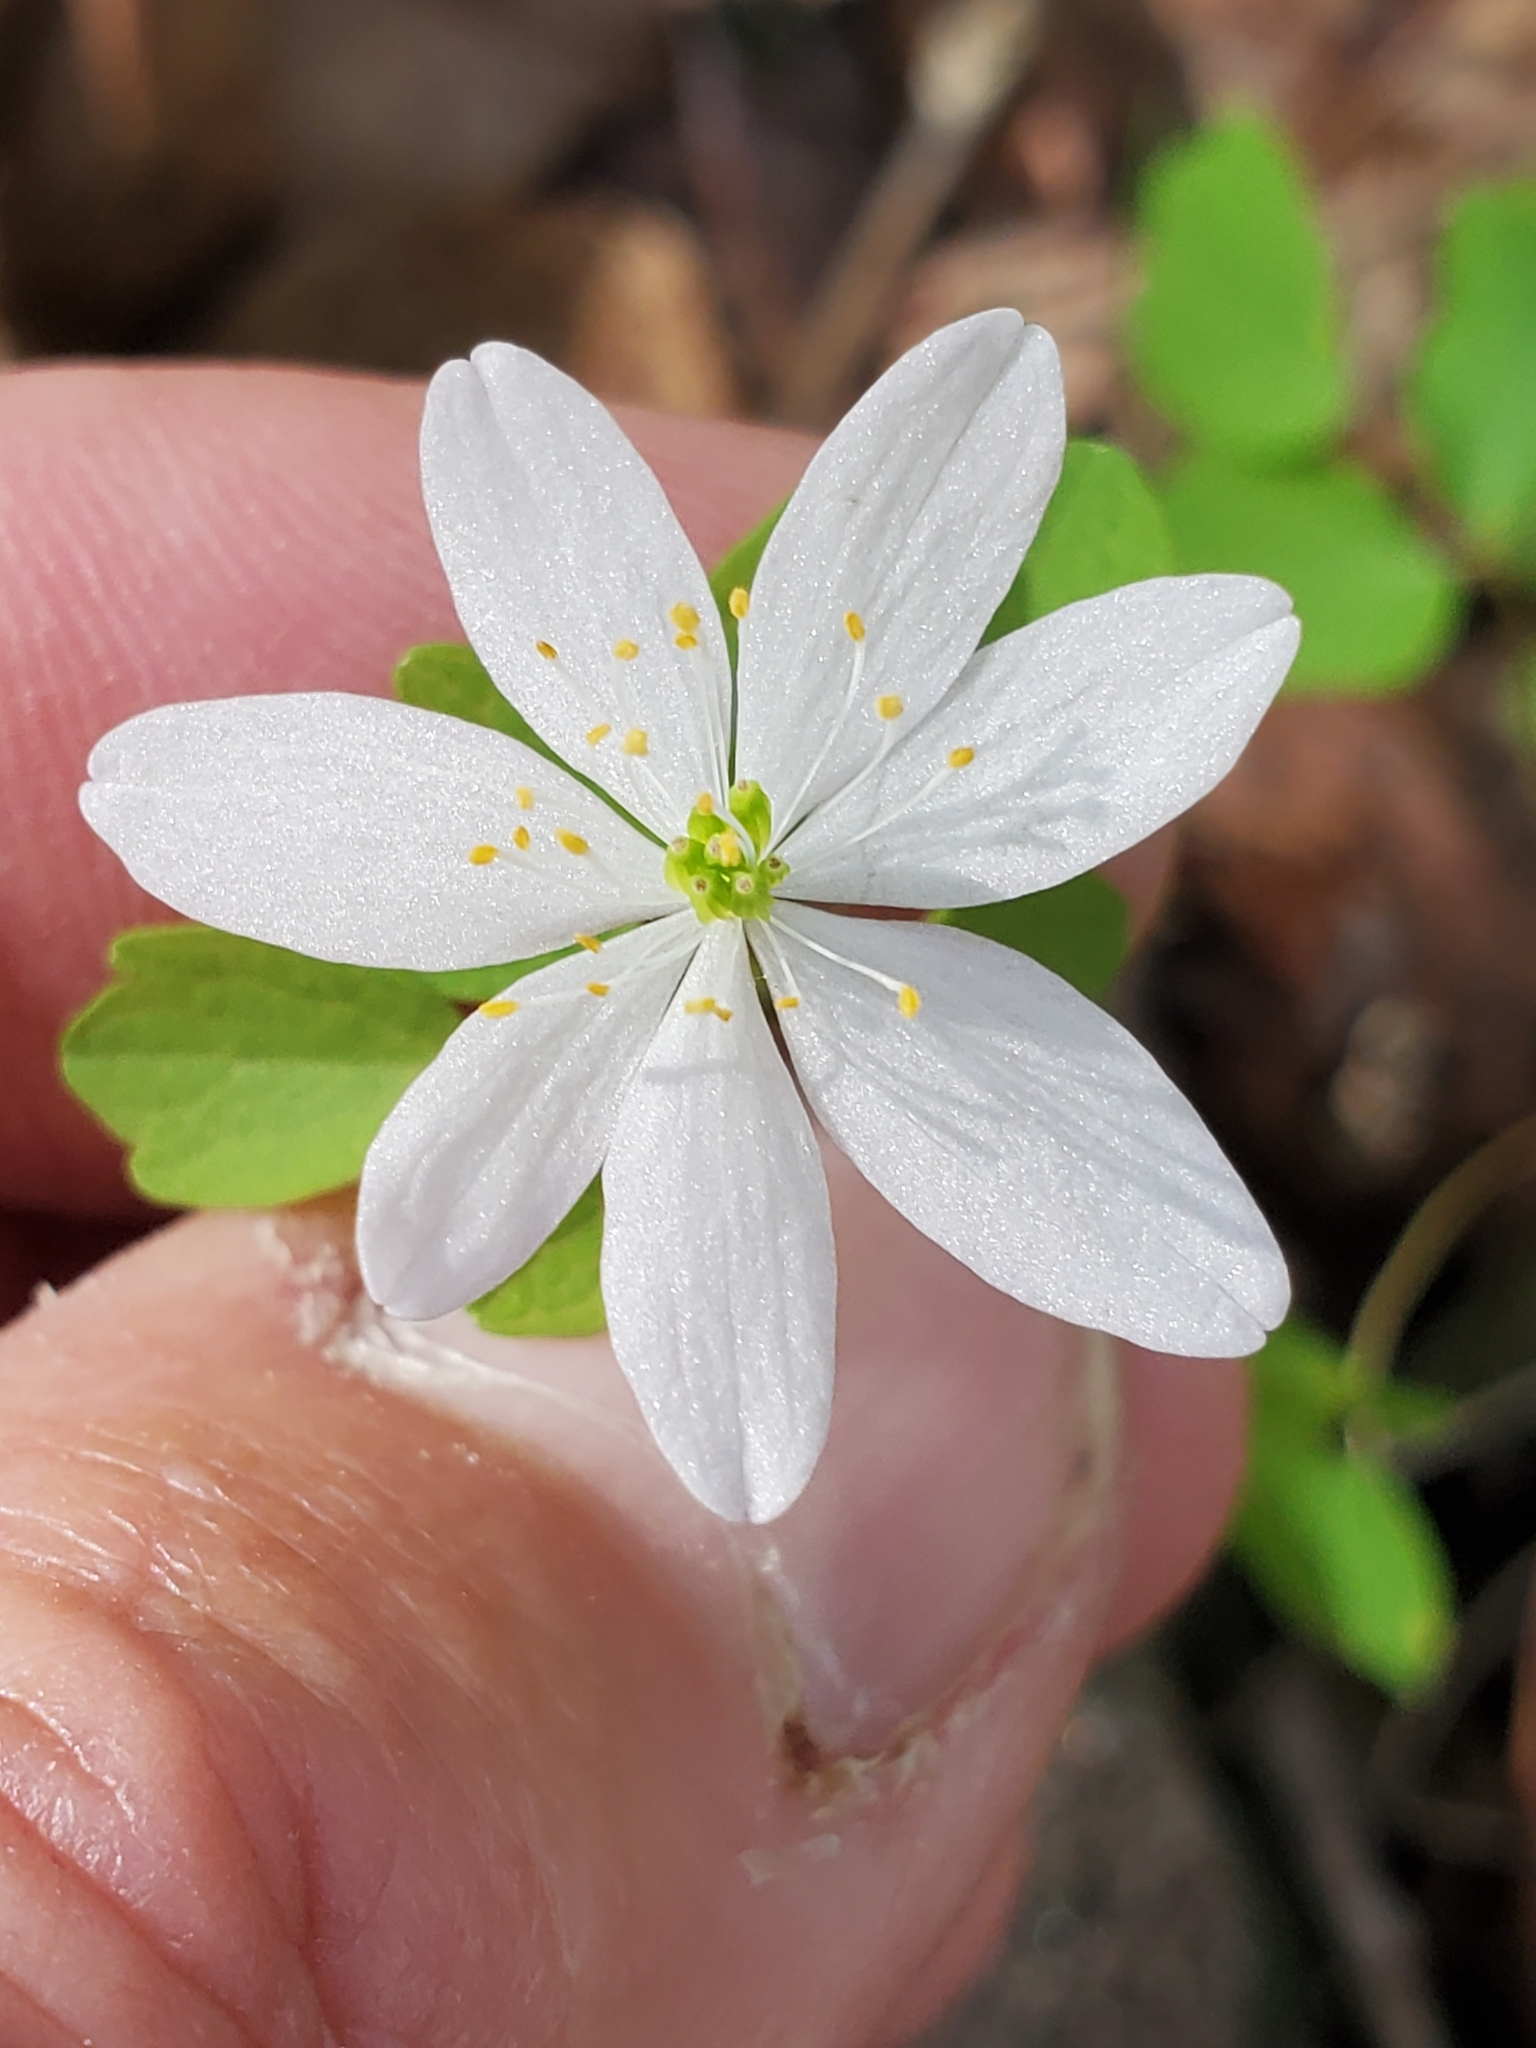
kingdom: Plantae
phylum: Tracheophyta
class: Magnoliopsida
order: Ranunculales
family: Ranunculaceae
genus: Thalictrum
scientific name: Thalictrum thalictroides
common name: Rue-anemone
